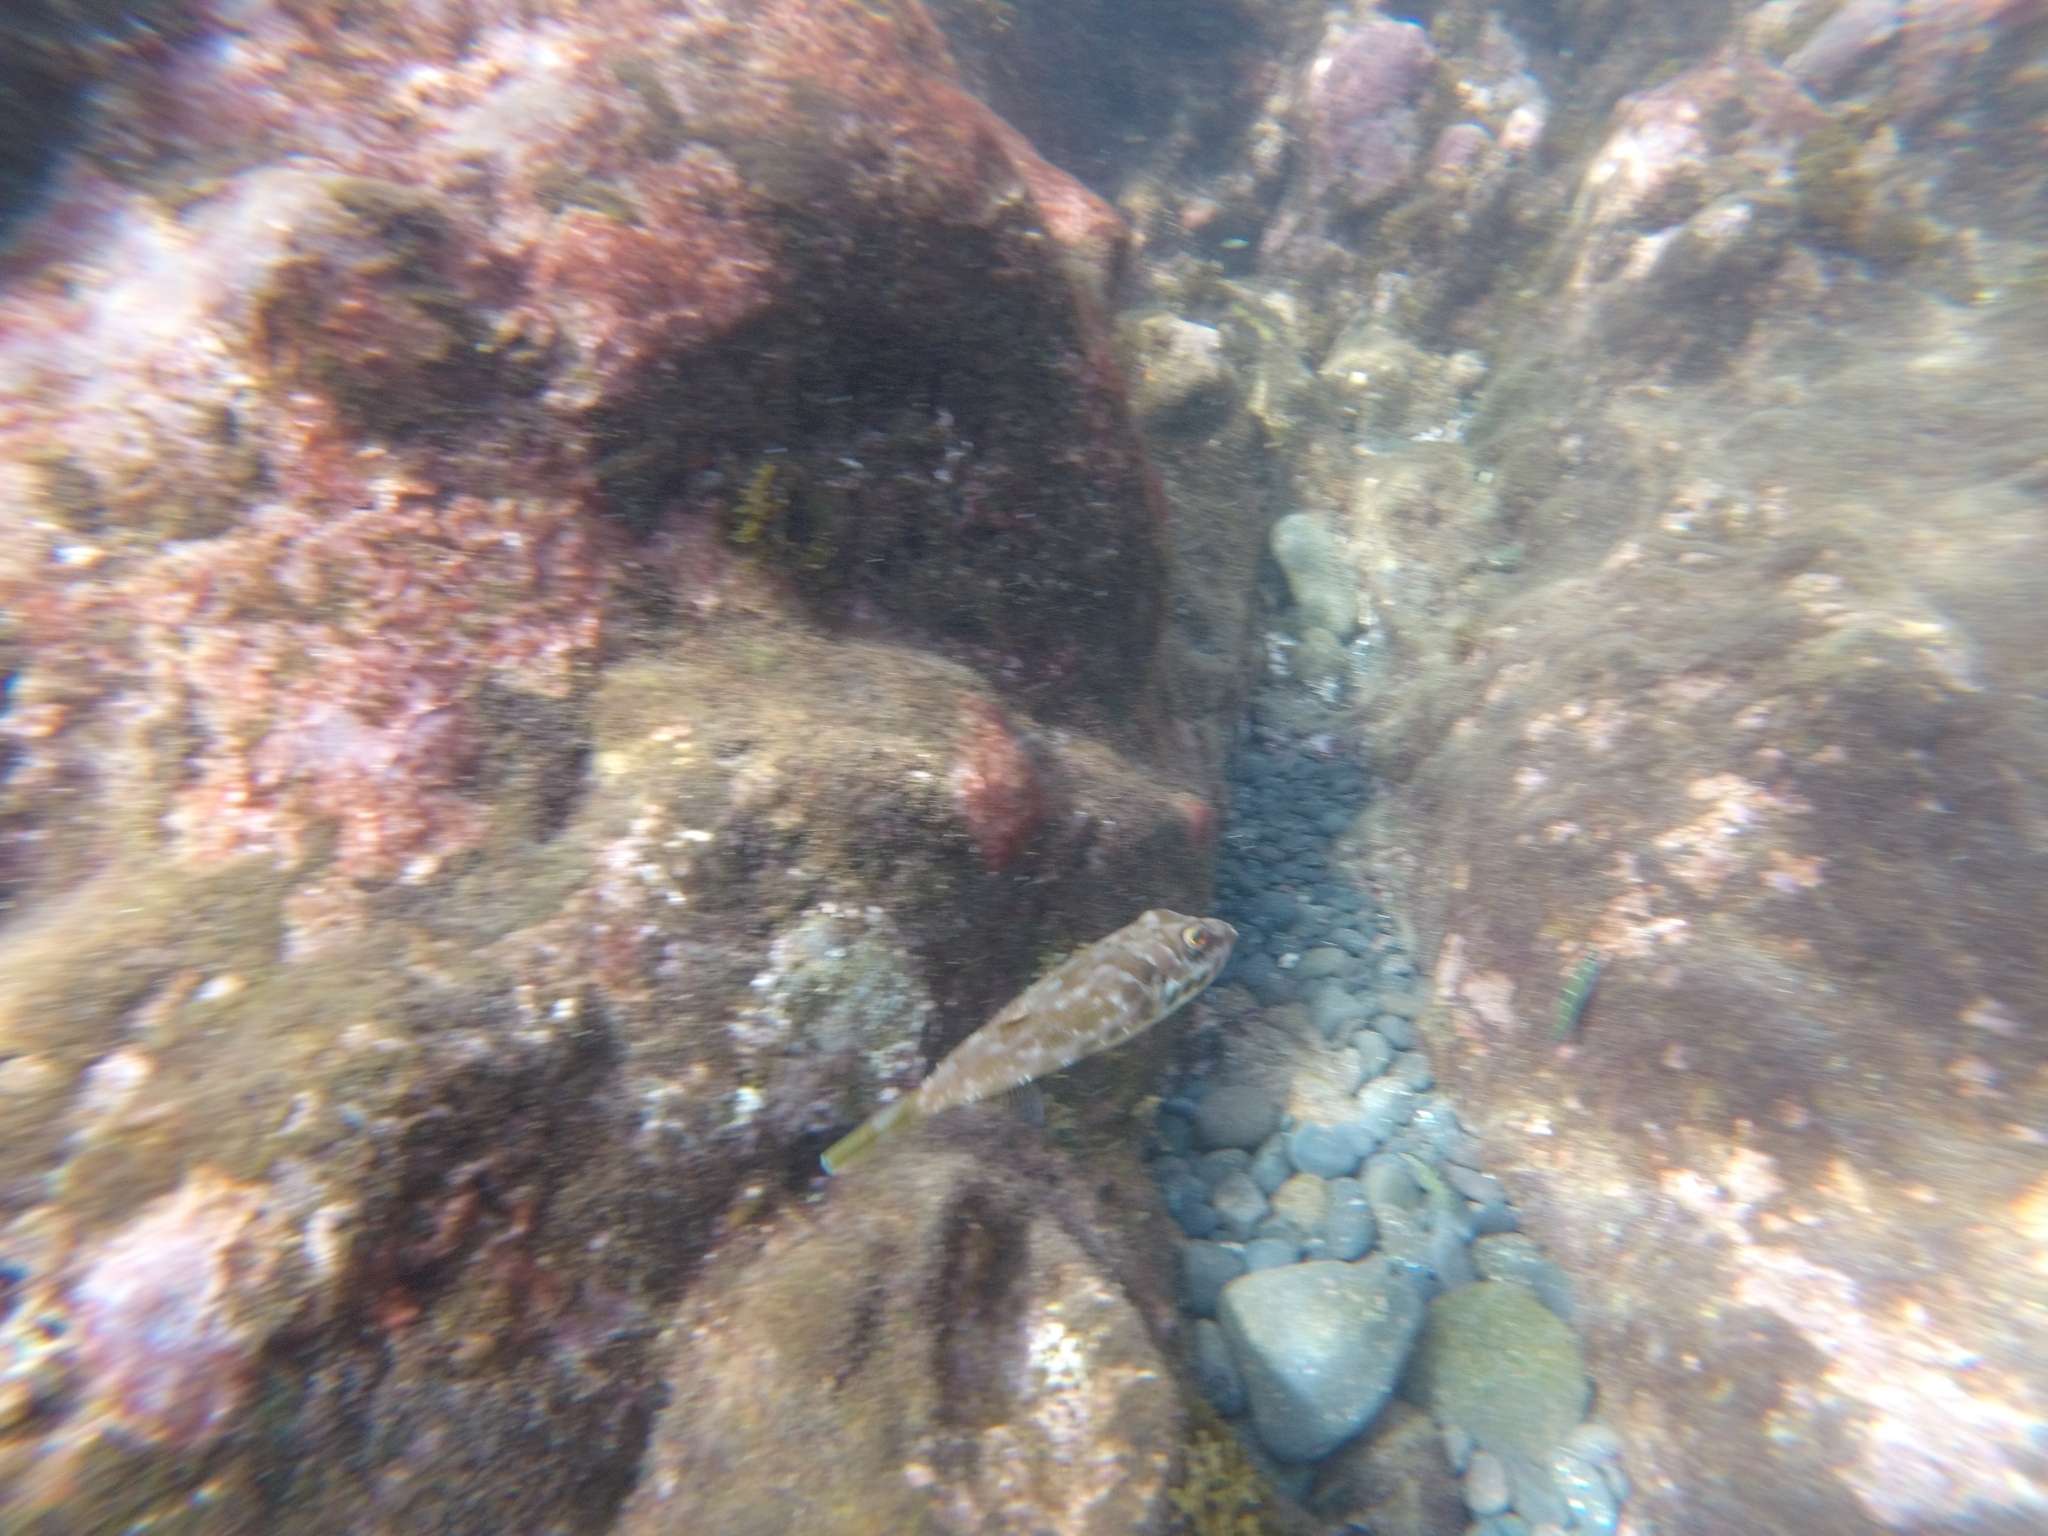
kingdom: Animalia
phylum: Chordata
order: Tetraodontiformes
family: Tetraodontidae
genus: Sphoeroides
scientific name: Sphoeroides marmoratus
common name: Guinean puffer
